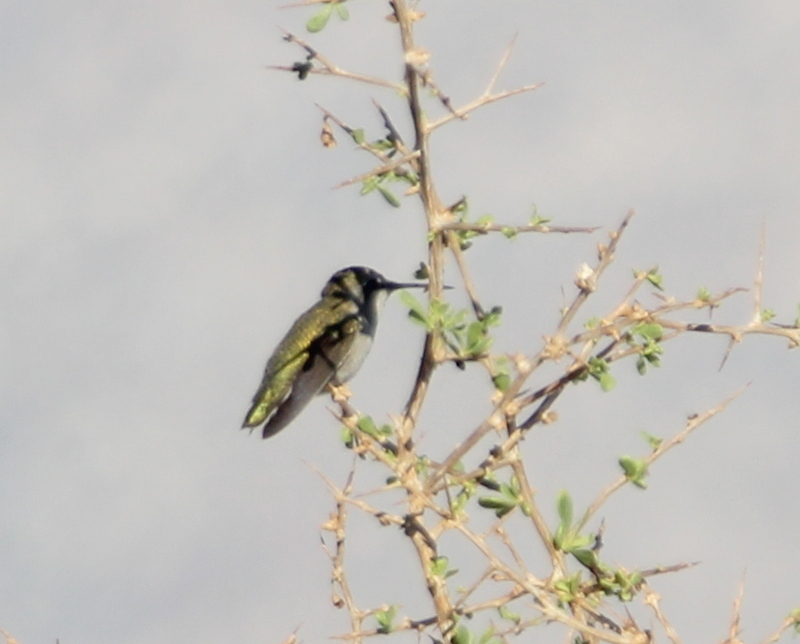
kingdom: Animalia
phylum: Chordata
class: Aves
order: Apodiformes
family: Trochilidae
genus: Calypte
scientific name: Calypte costae
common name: Costa's hummingbird
